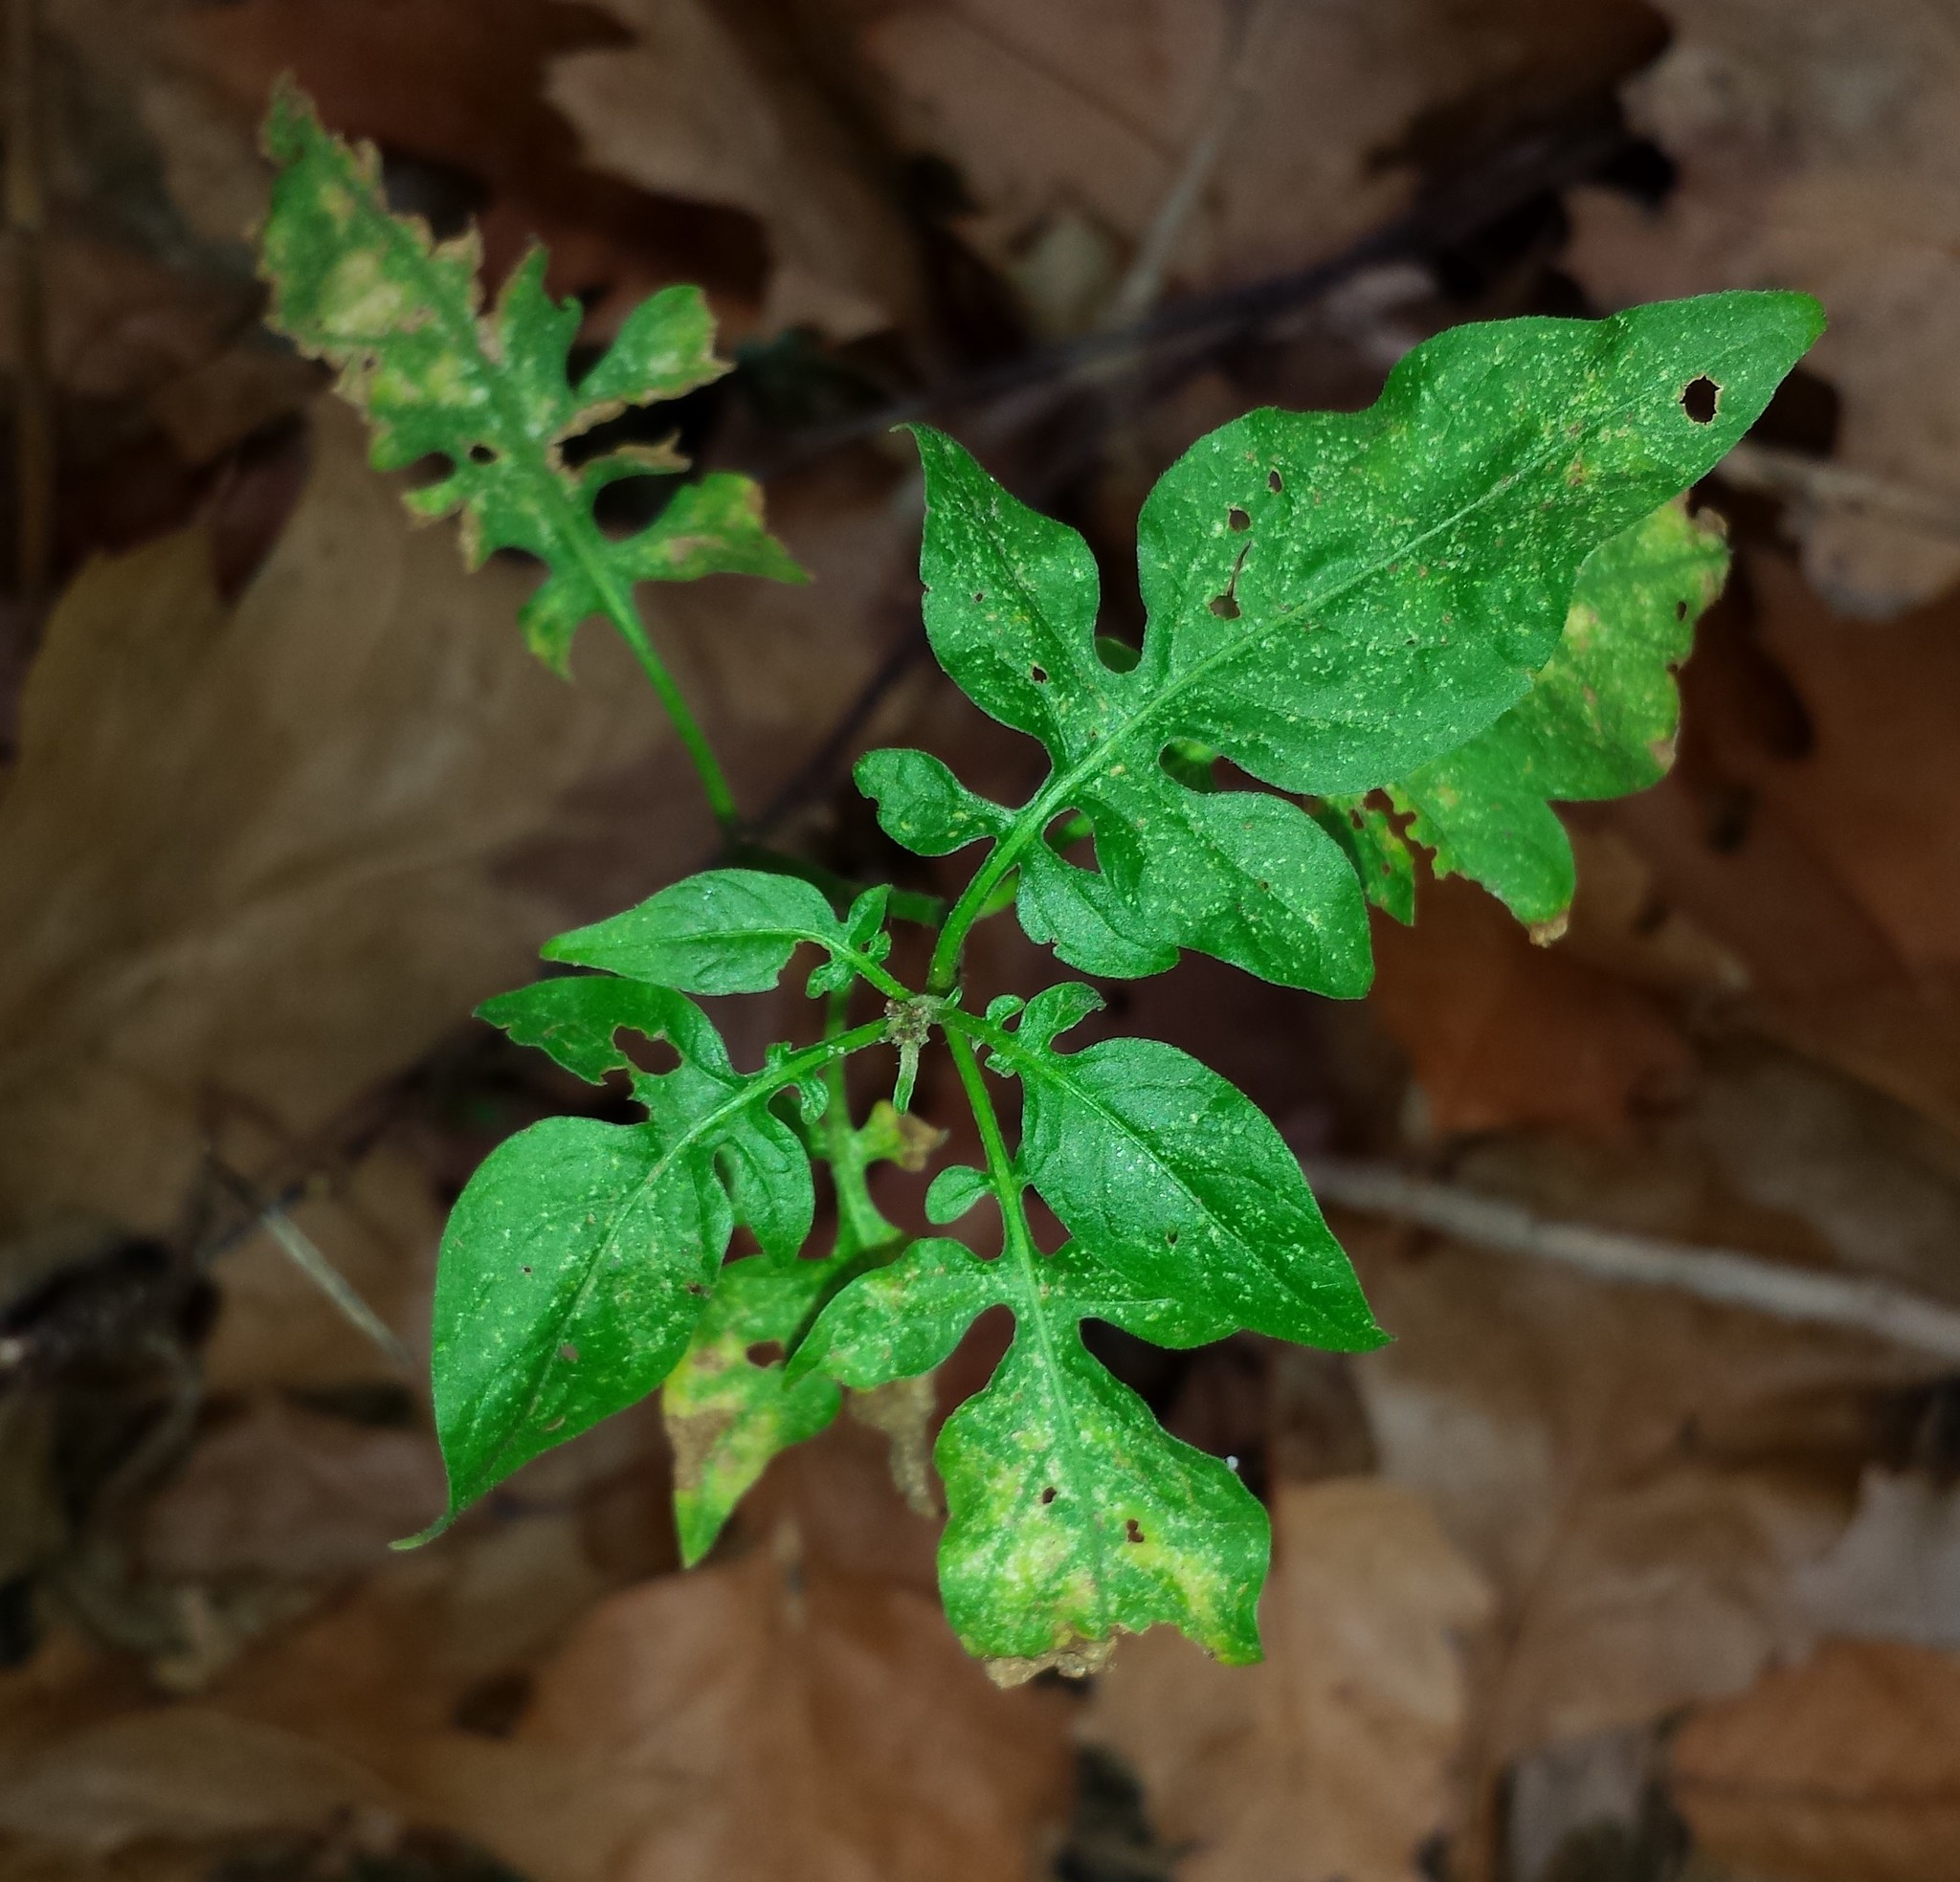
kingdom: Plantae
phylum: Tracheophyta
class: Magnoliopsida
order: Solanales
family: Solanaceae
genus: Solanum
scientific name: Solanum dulcamara
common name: Climbing nightshade
